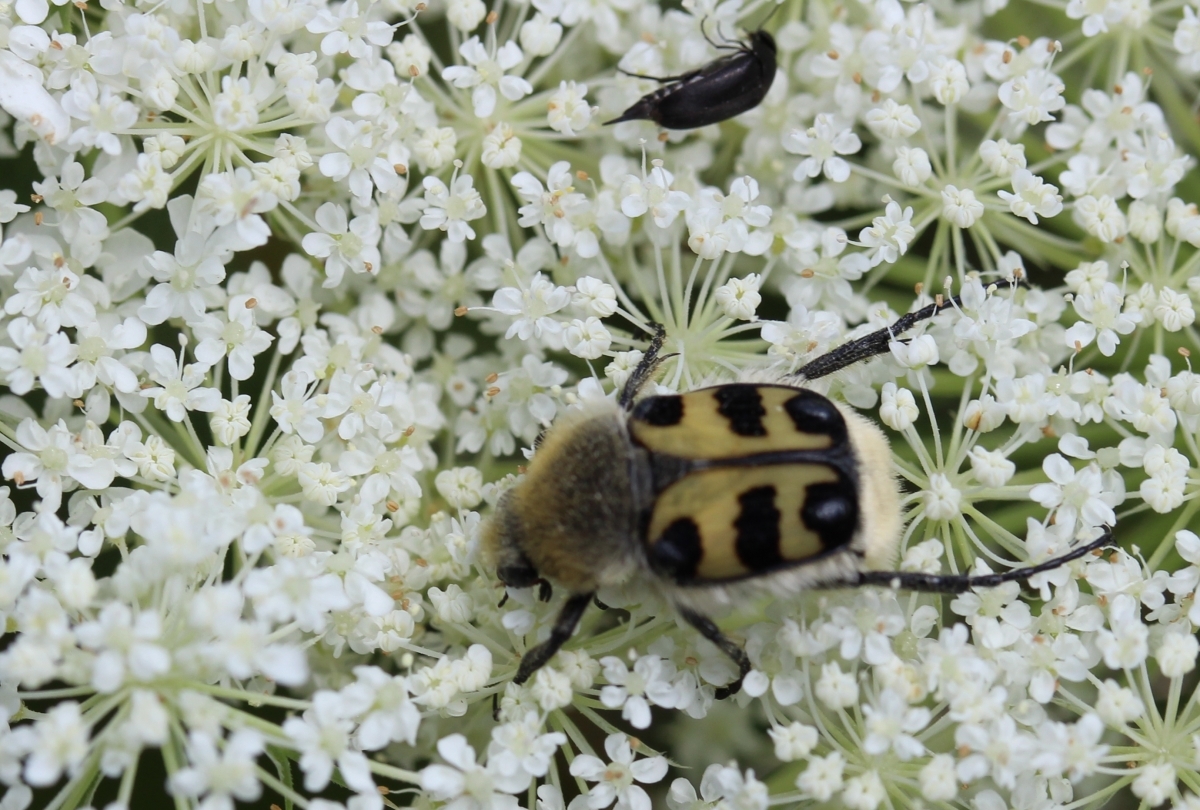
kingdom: Animalia
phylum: Arthropoda
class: Insecta
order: Coleoptera
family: Scarabaeidae
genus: Trichius
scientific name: Trichius gallicus
